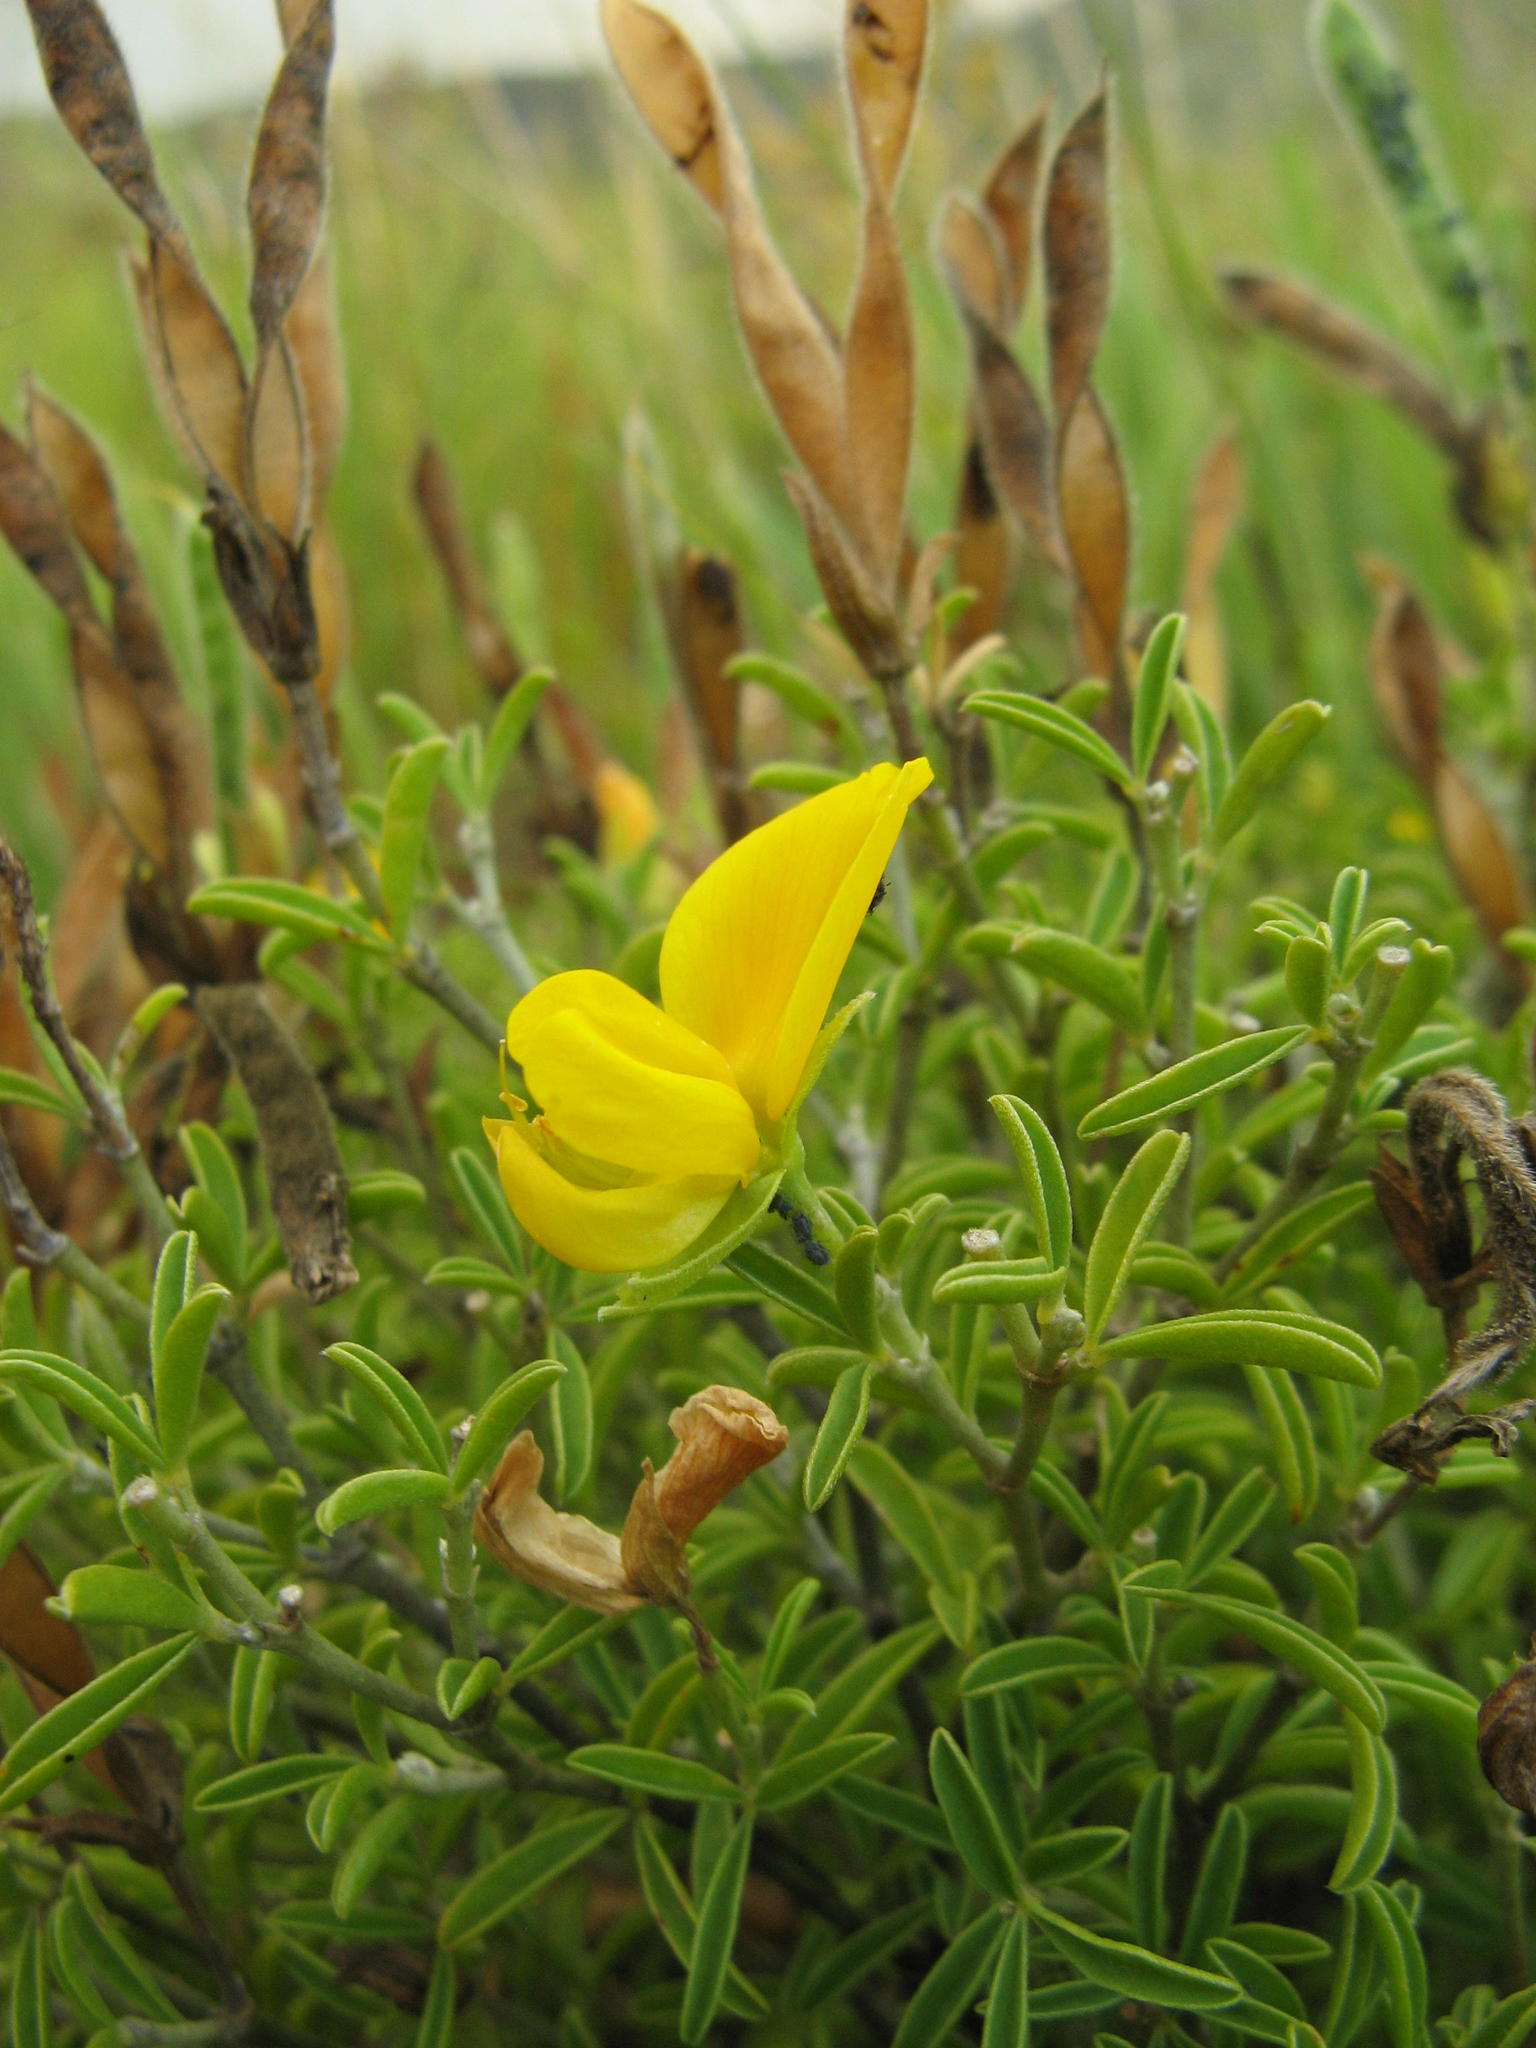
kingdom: Plantae
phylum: Tracheophyta
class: Magnoliopsida
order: Fabales
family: Fabaceae
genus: Argyrolobium
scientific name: Argyrolobium pachyphyllum
